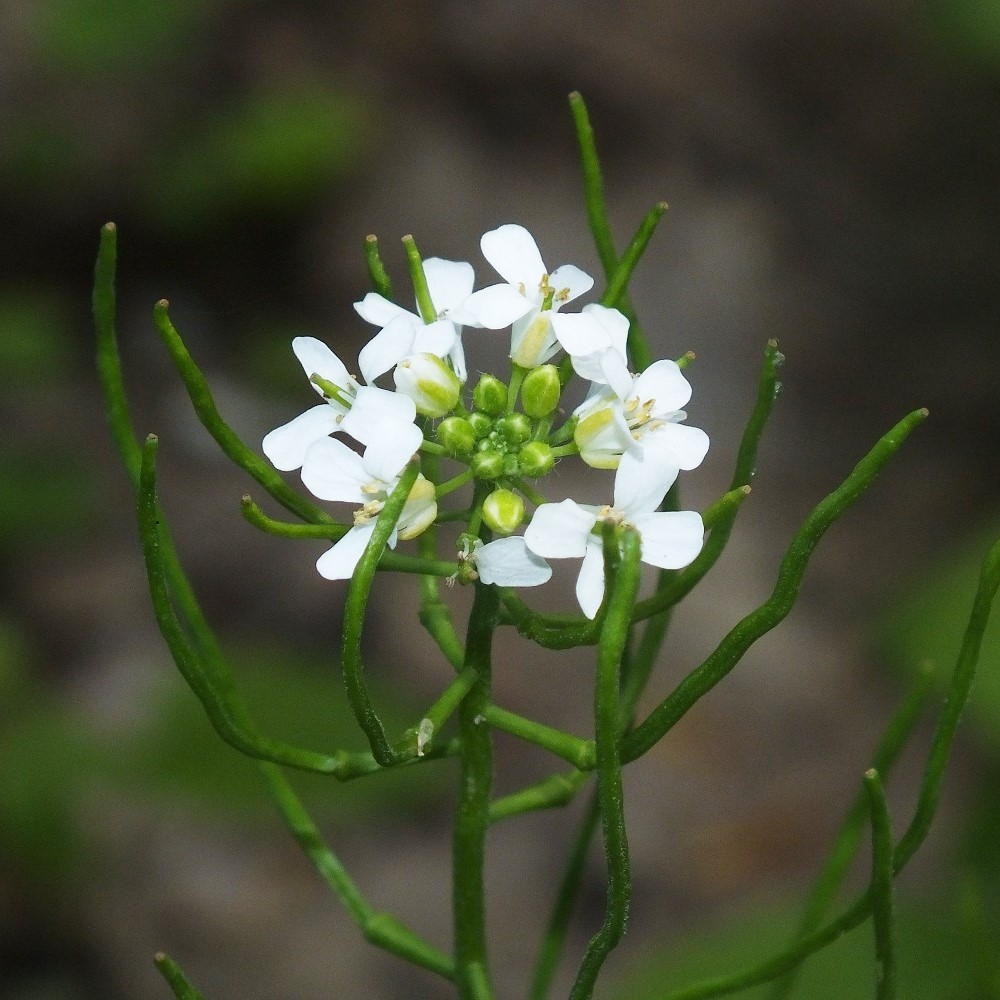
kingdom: Plantae
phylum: Tracheophyta
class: Magnoliopsida
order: Brassicales
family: Brassicaceae
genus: Alliaria
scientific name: Alliaria petiolata
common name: Garlic mustard
